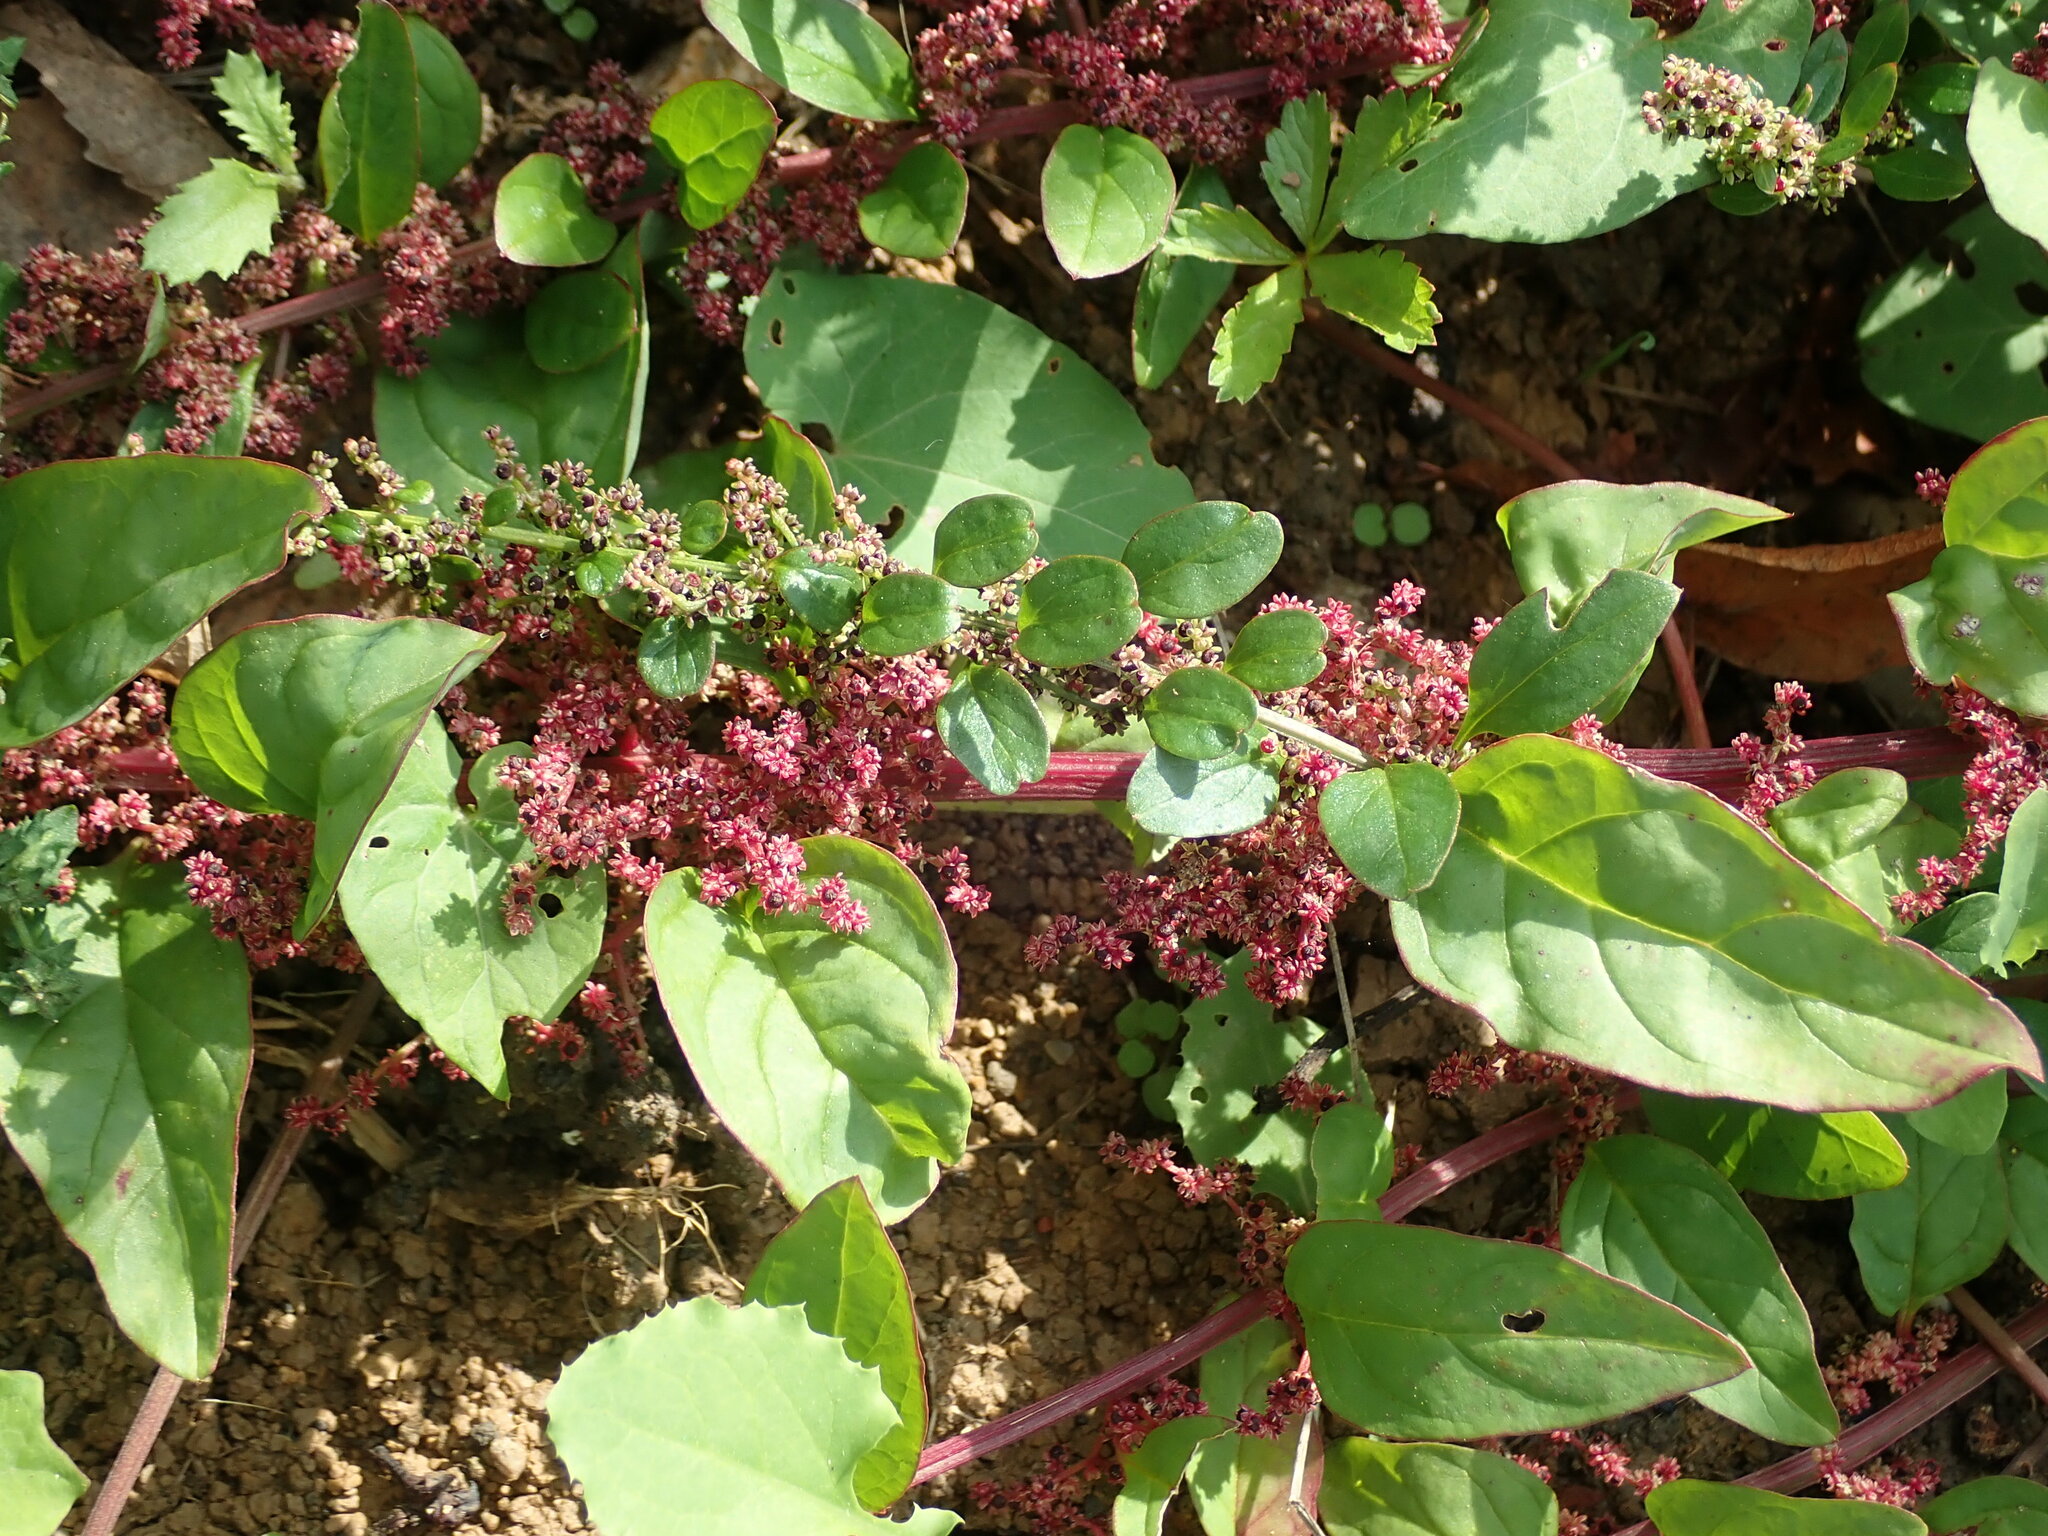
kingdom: Plantae
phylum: Tracheophyta
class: Magnoliopsida
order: Caryophyllales
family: Amaranthaceae
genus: Lipandra
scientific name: Lipandra polysperma
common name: Many-seed goosefoot
